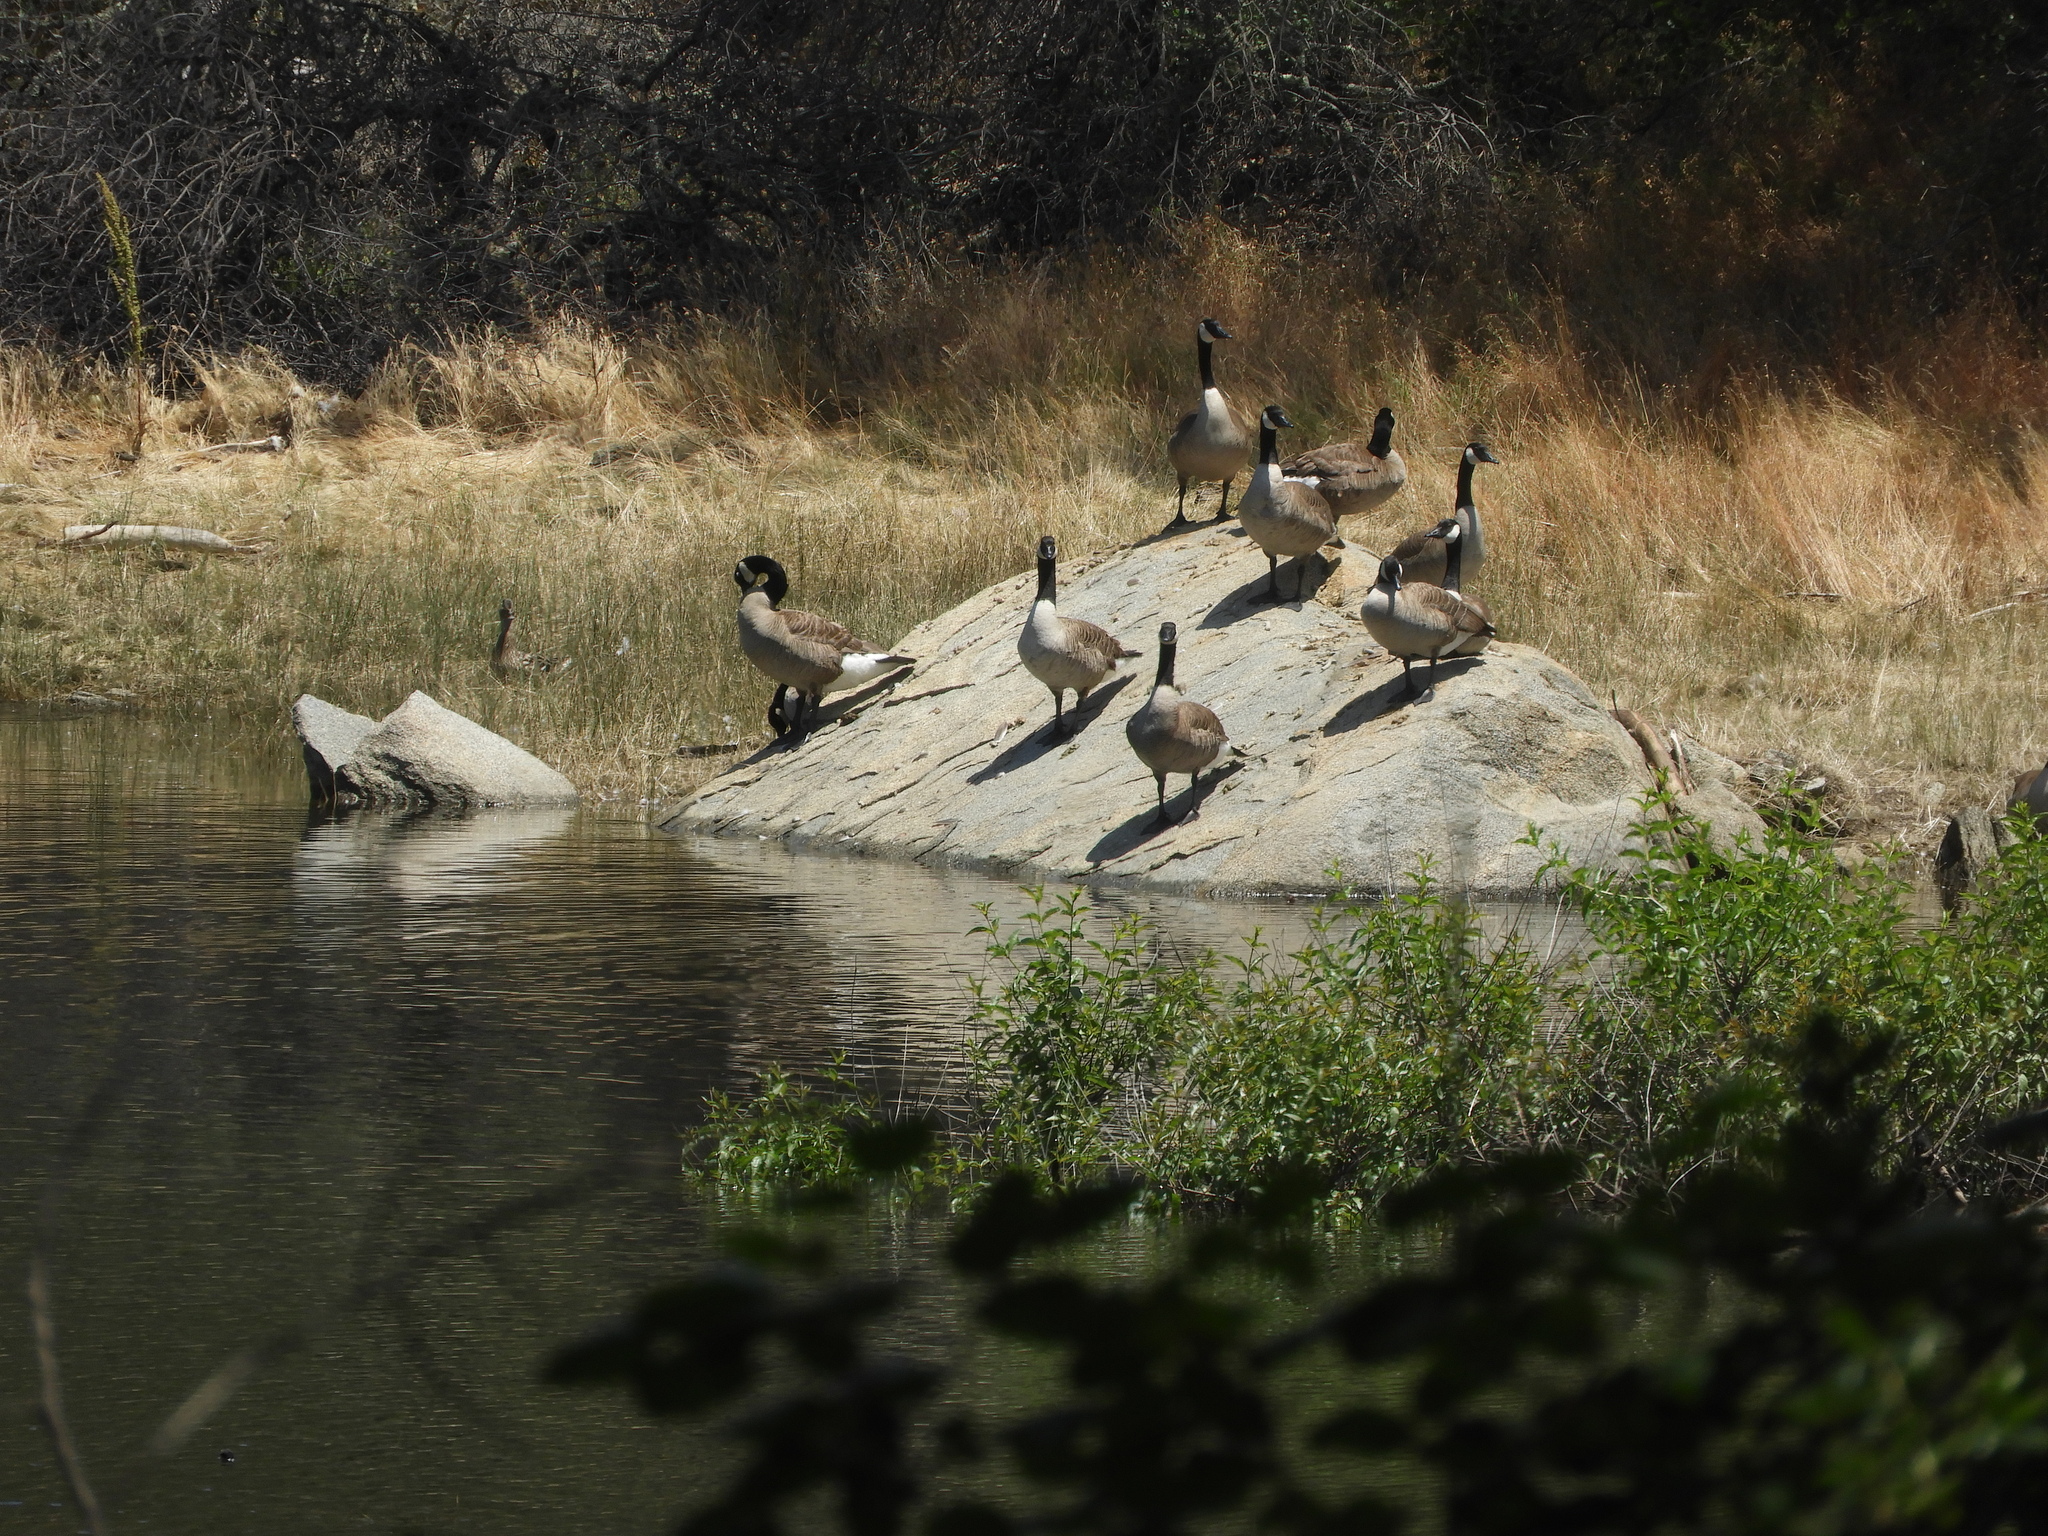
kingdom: Animalia
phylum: Chordata
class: Aves
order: Anseriformes
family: Anatidae
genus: Branta
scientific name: Branta canadensis
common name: Canada goose
